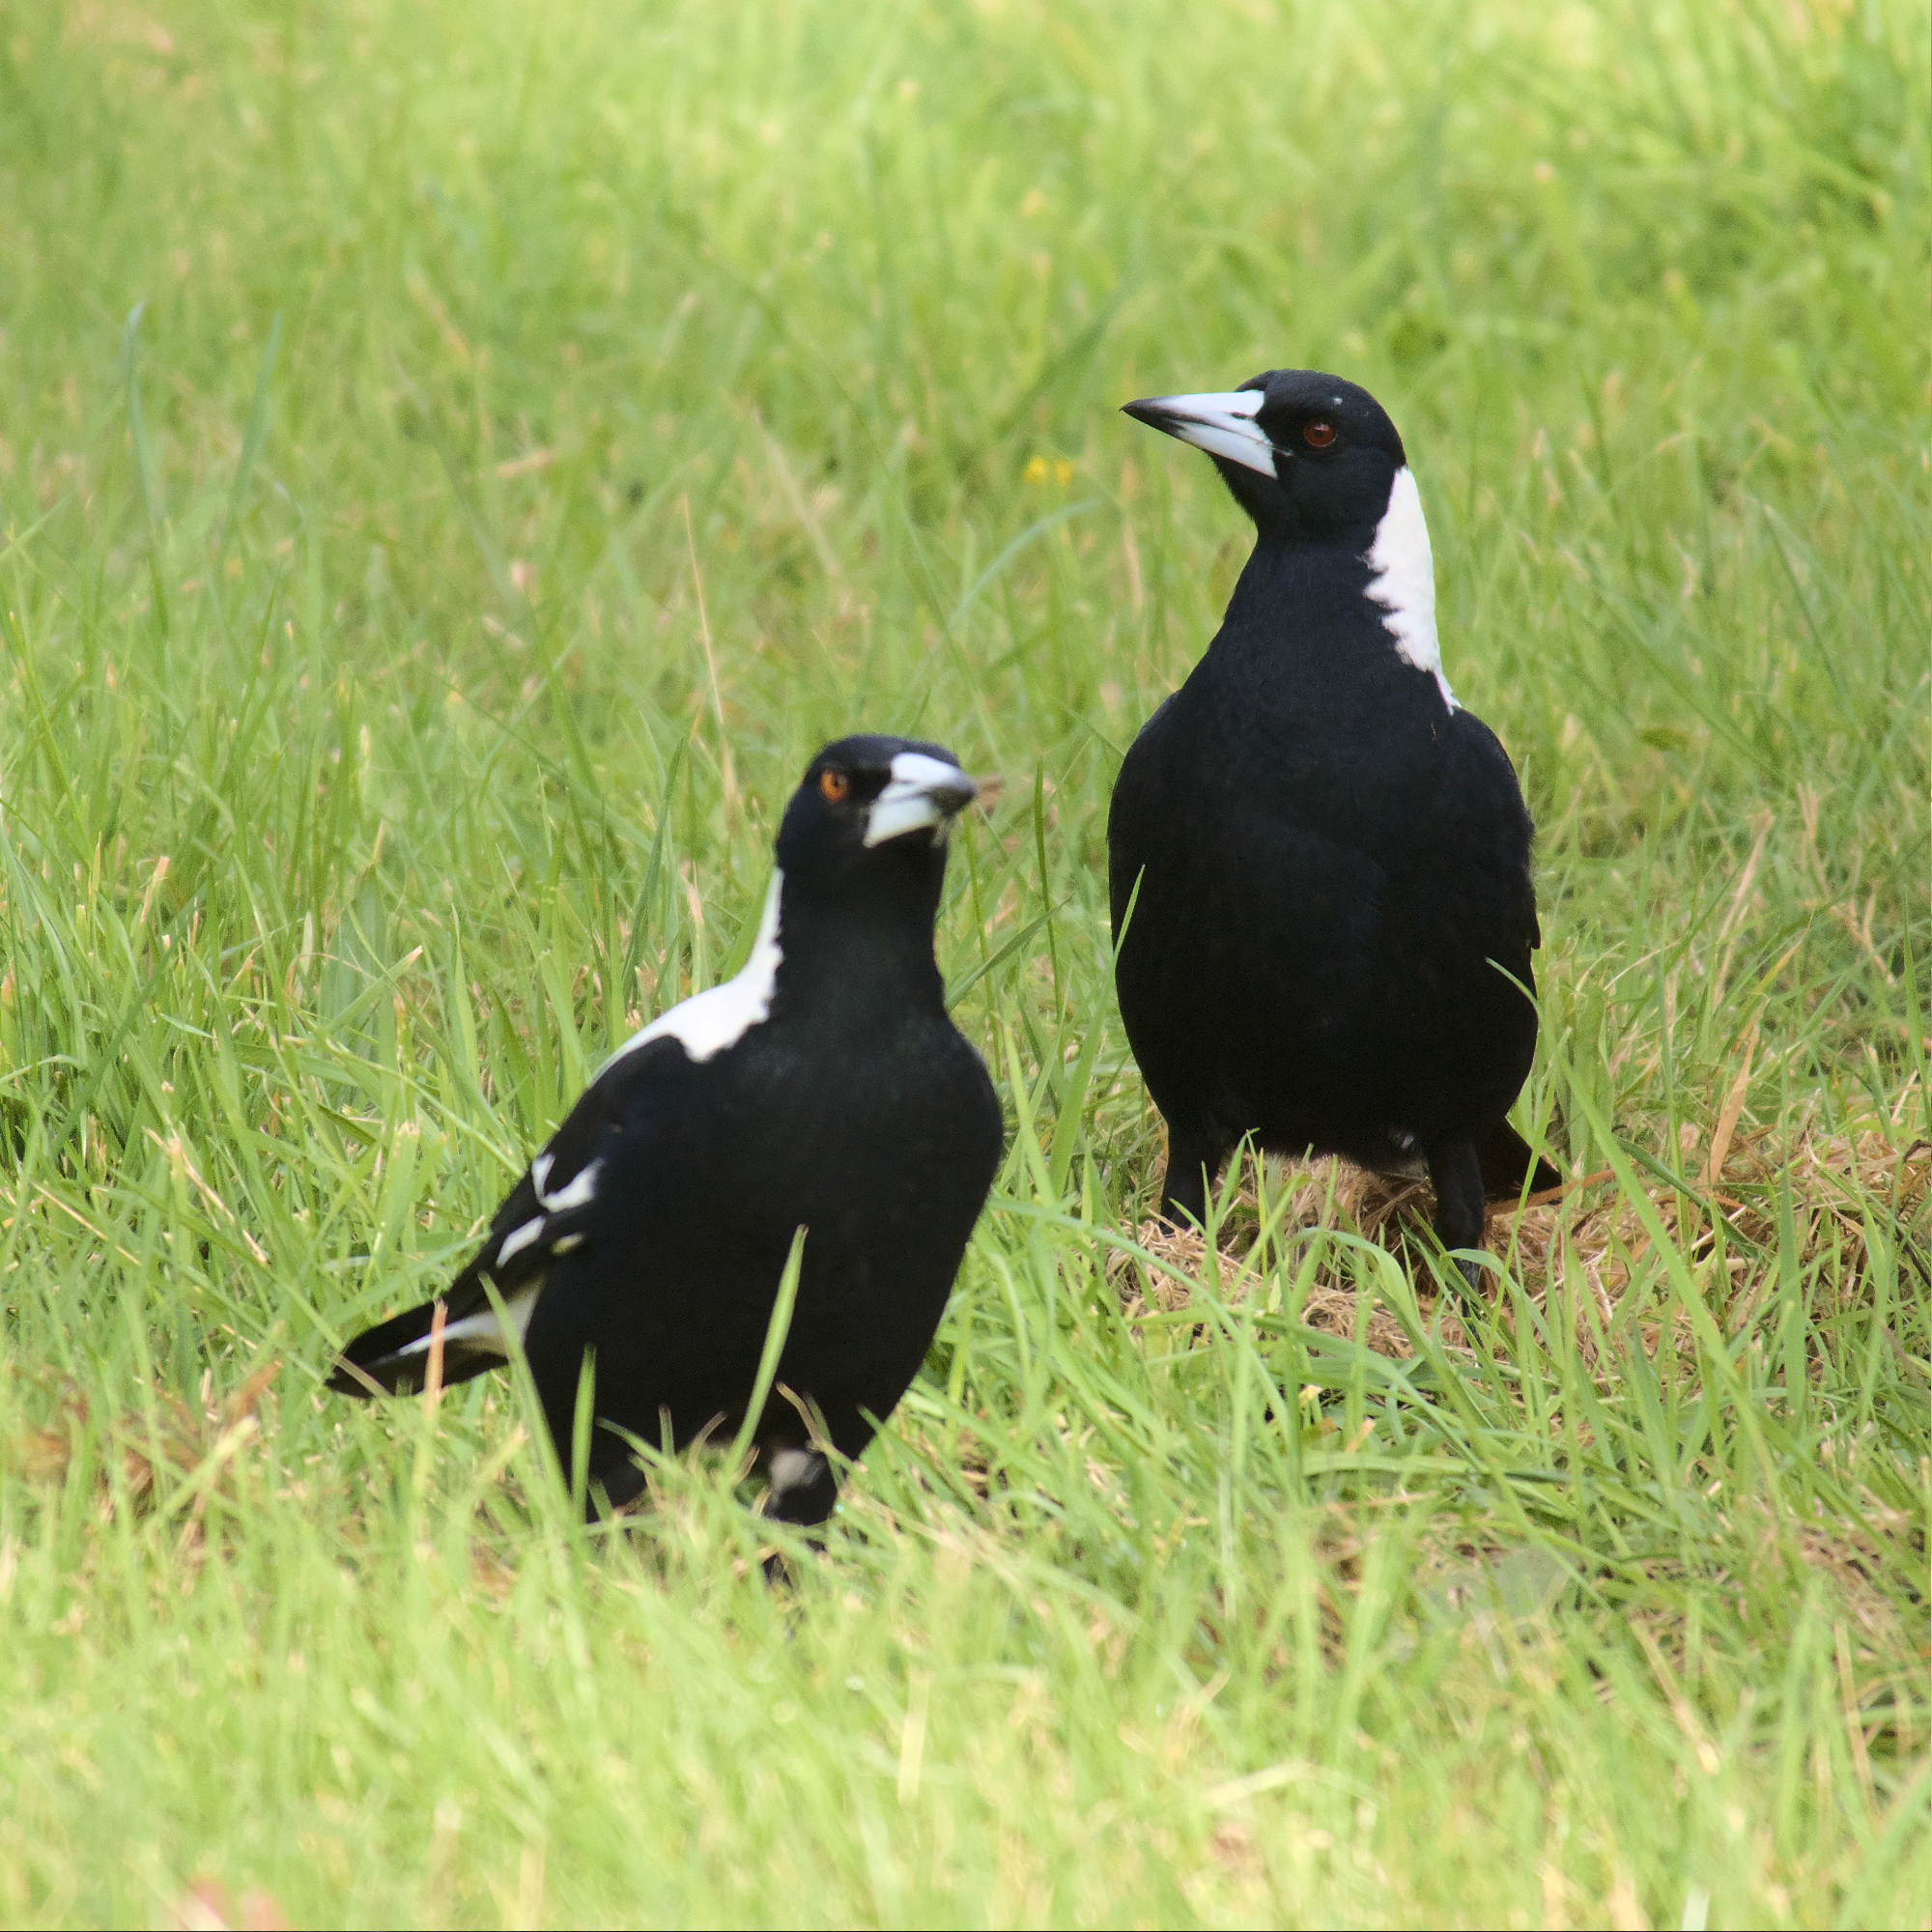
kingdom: Animalia
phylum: Chordata
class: Aves
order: Passeriformes
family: Cracticidae
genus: Gymnorhina
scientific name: Gymnorhina tibicen
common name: Australian magpie
